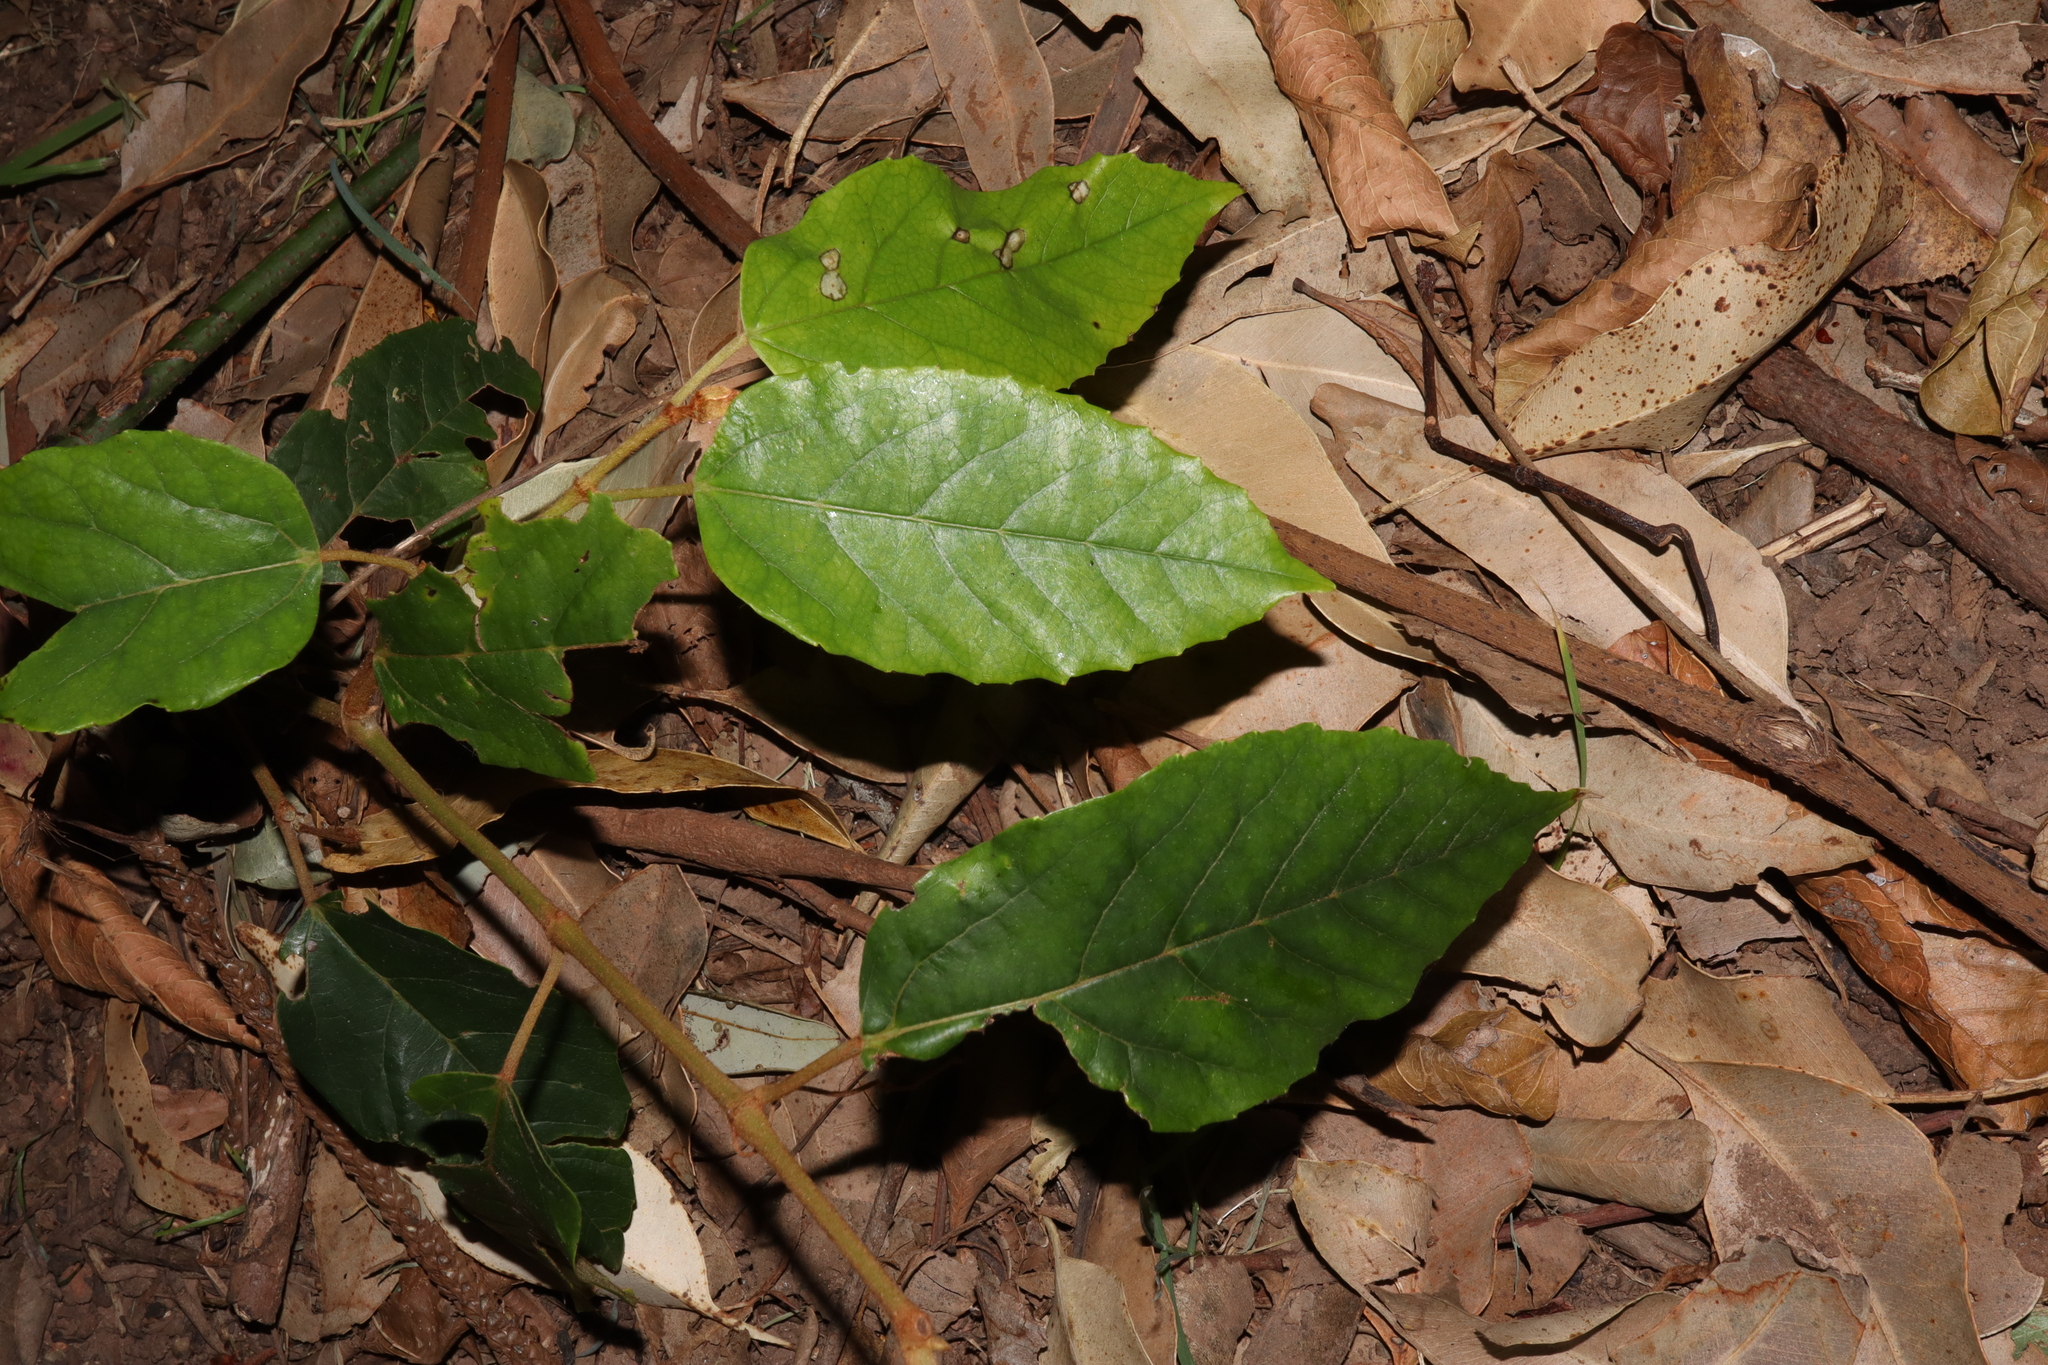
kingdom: Plantae
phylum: Tracheophyta
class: Magnoliopsida
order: Vitales
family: Vitaceae
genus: Cissus
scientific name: Cissus antarctica
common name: Kangaroo vine
